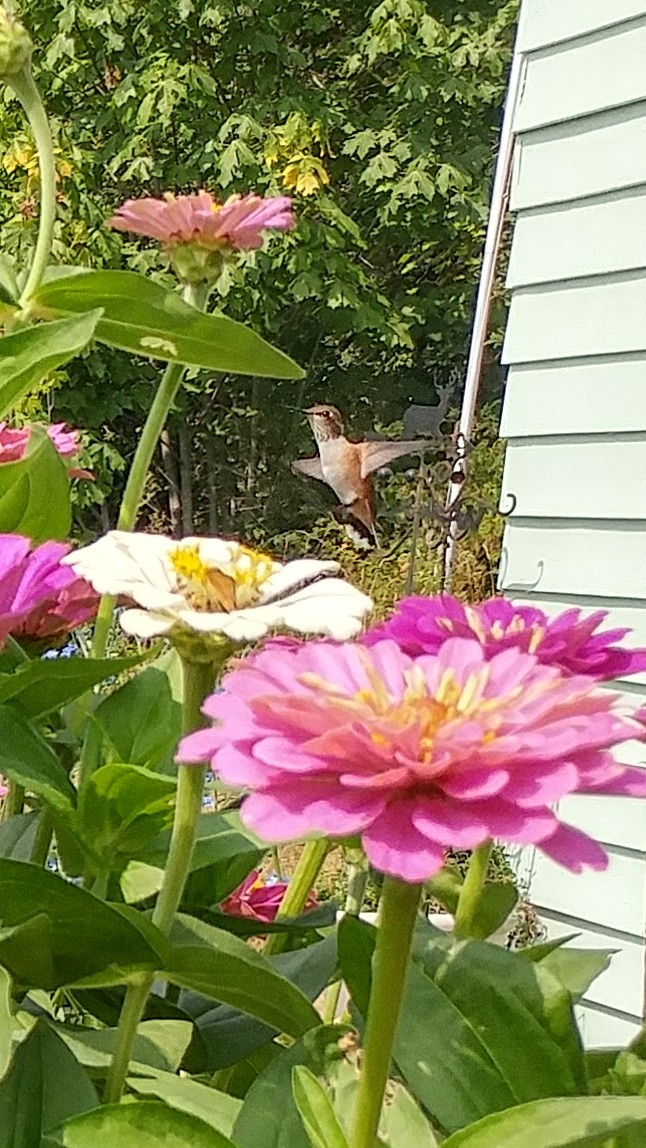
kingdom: Animalia
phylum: Chordata
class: Aves
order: Apodiformes
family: Trochilidae
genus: Selasphorus
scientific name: Selasphorus rufus
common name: Rufous hummingbird
